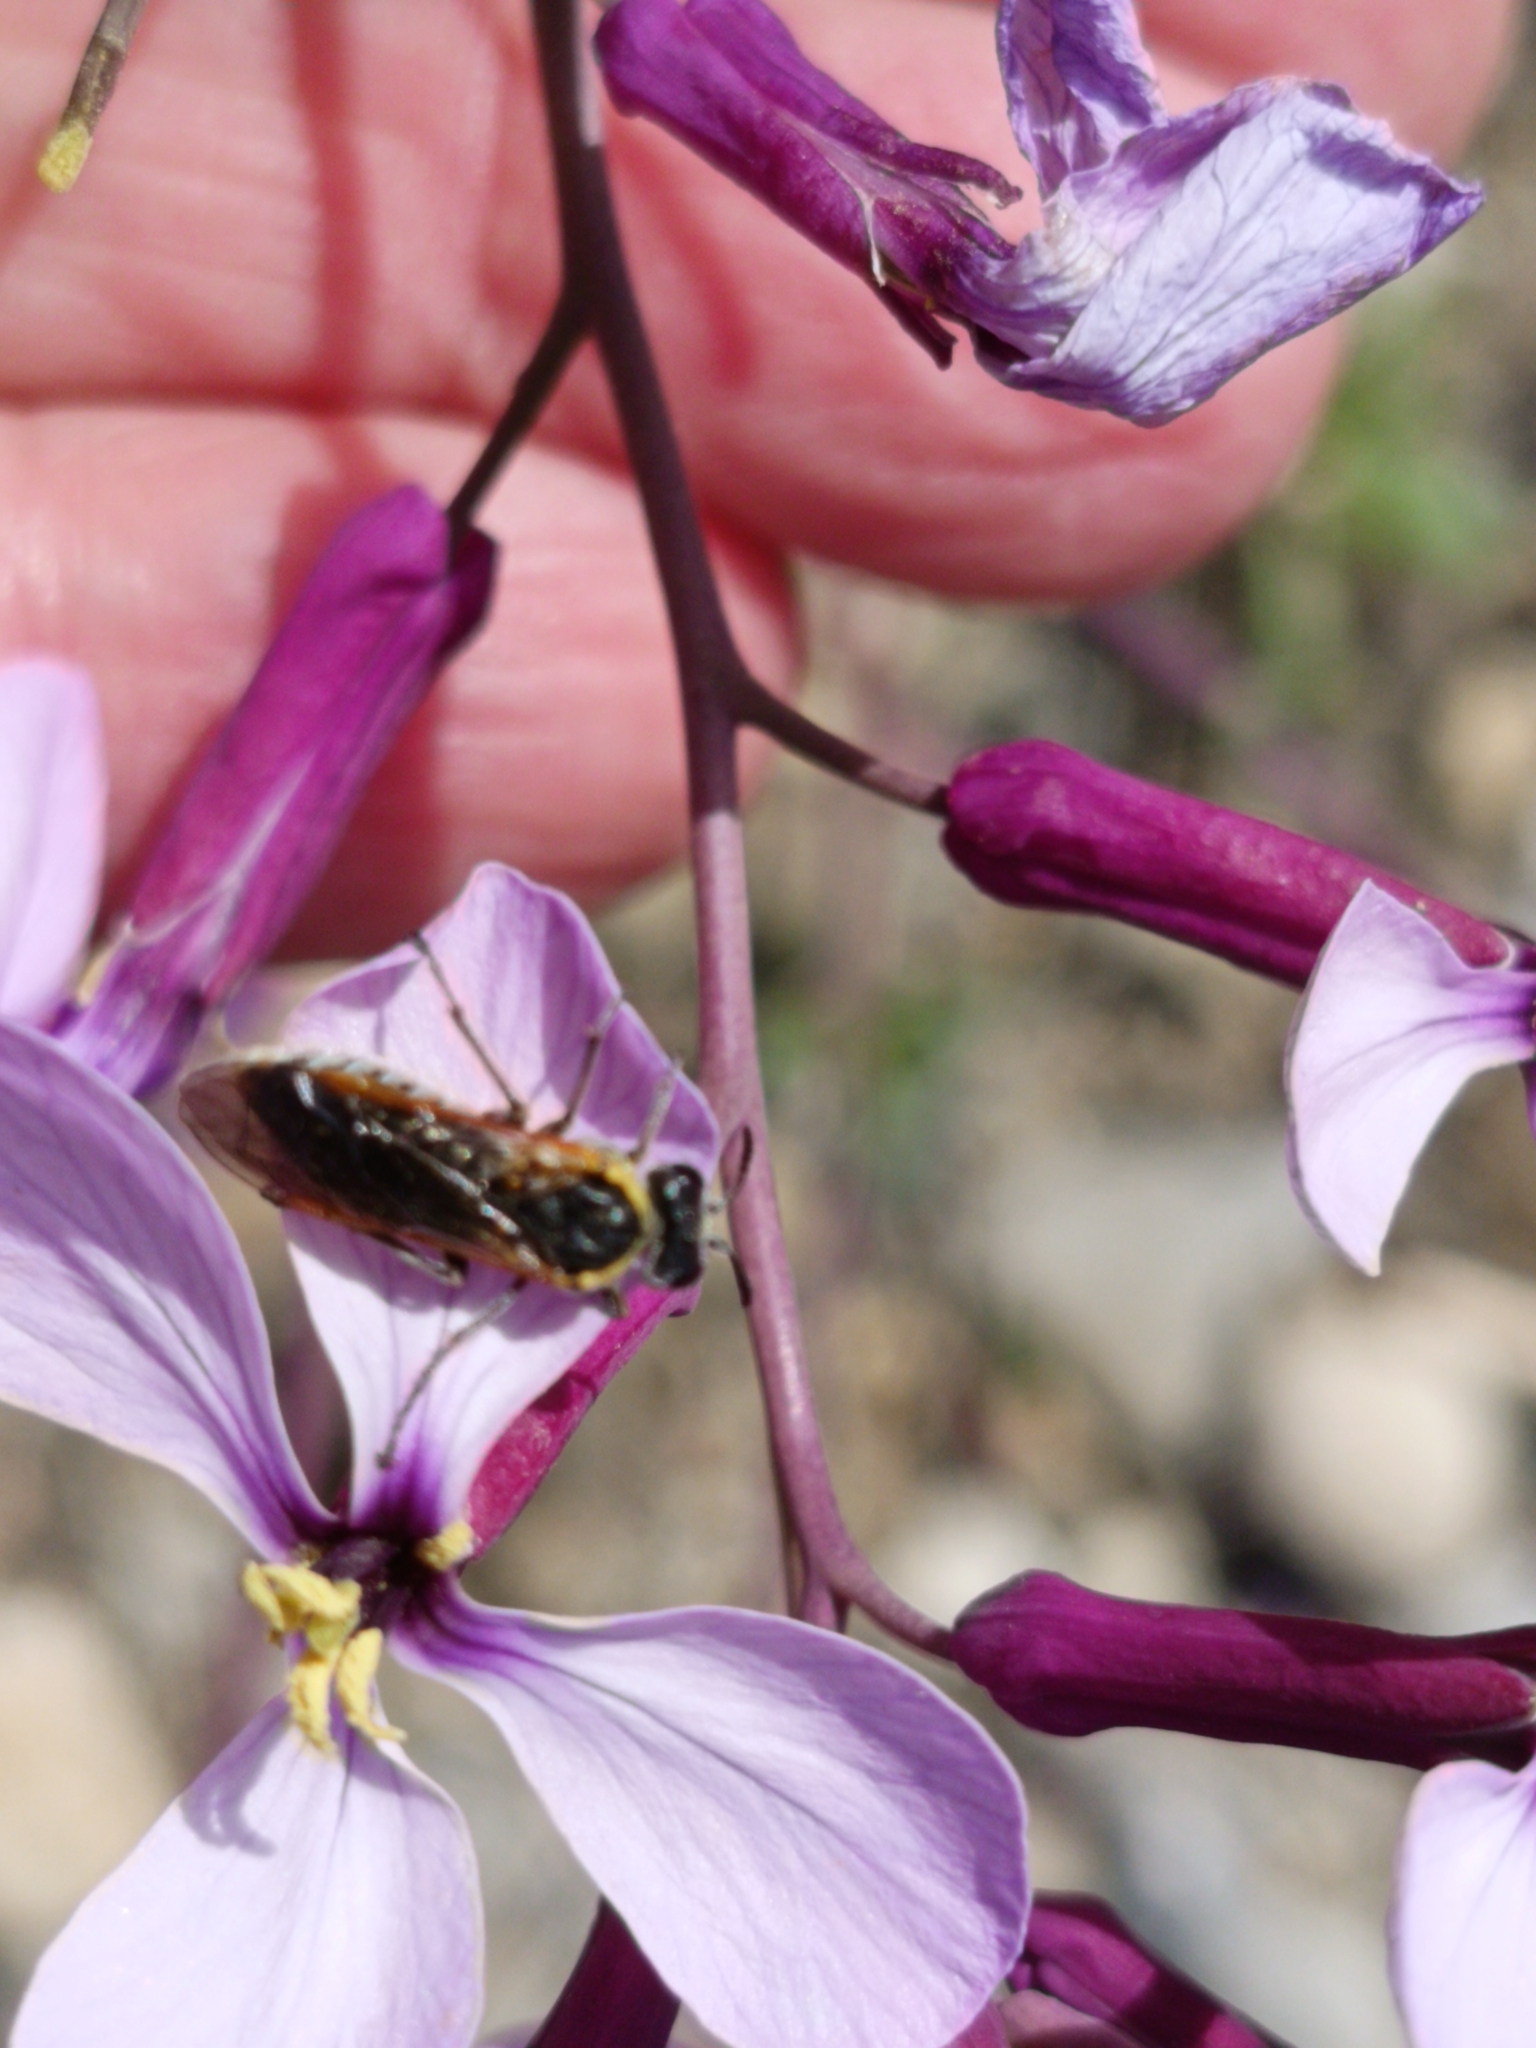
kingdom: Plantae
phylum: Tracheophyta
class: Magnoliopsida
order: Brassicales
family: Brassicaceae
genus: Moricandia
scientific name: Moricandia arvensis
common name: Purple mistress
